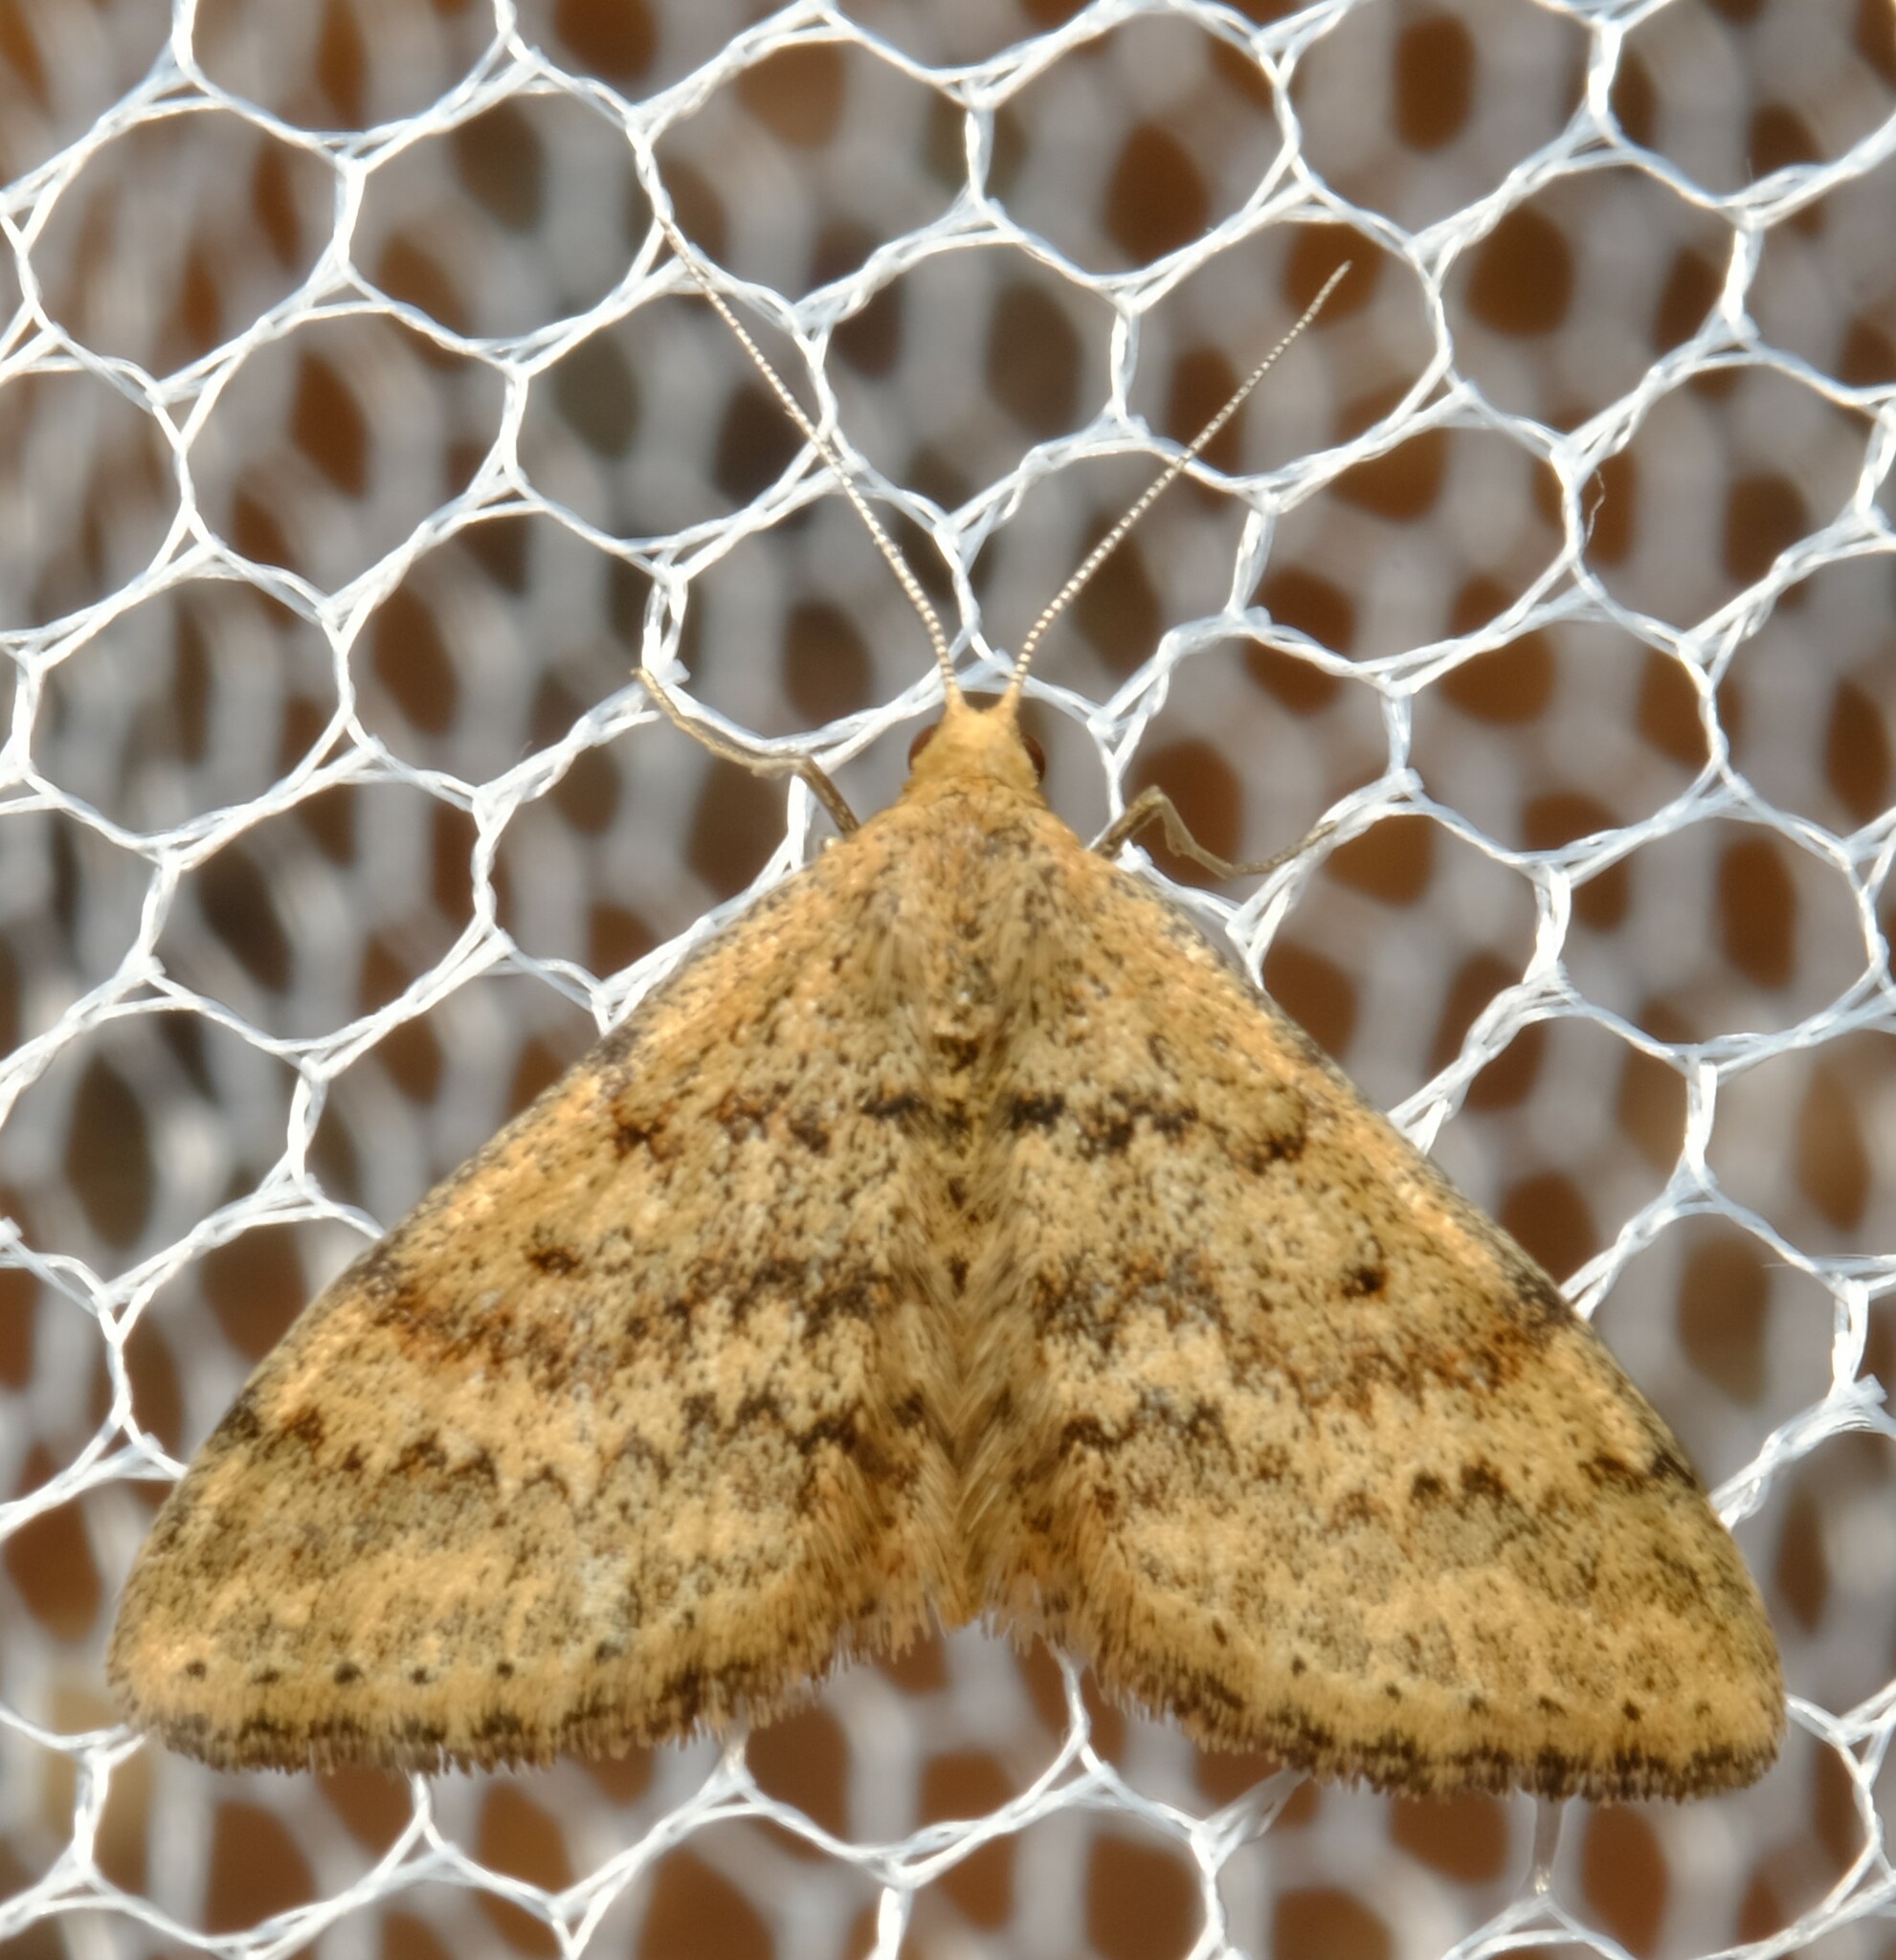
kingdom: Animalia
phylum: Arthropoda
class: Insecta
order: Lepidoptera
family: Geometridae
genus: Scopula
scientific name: Scopula rubraria
